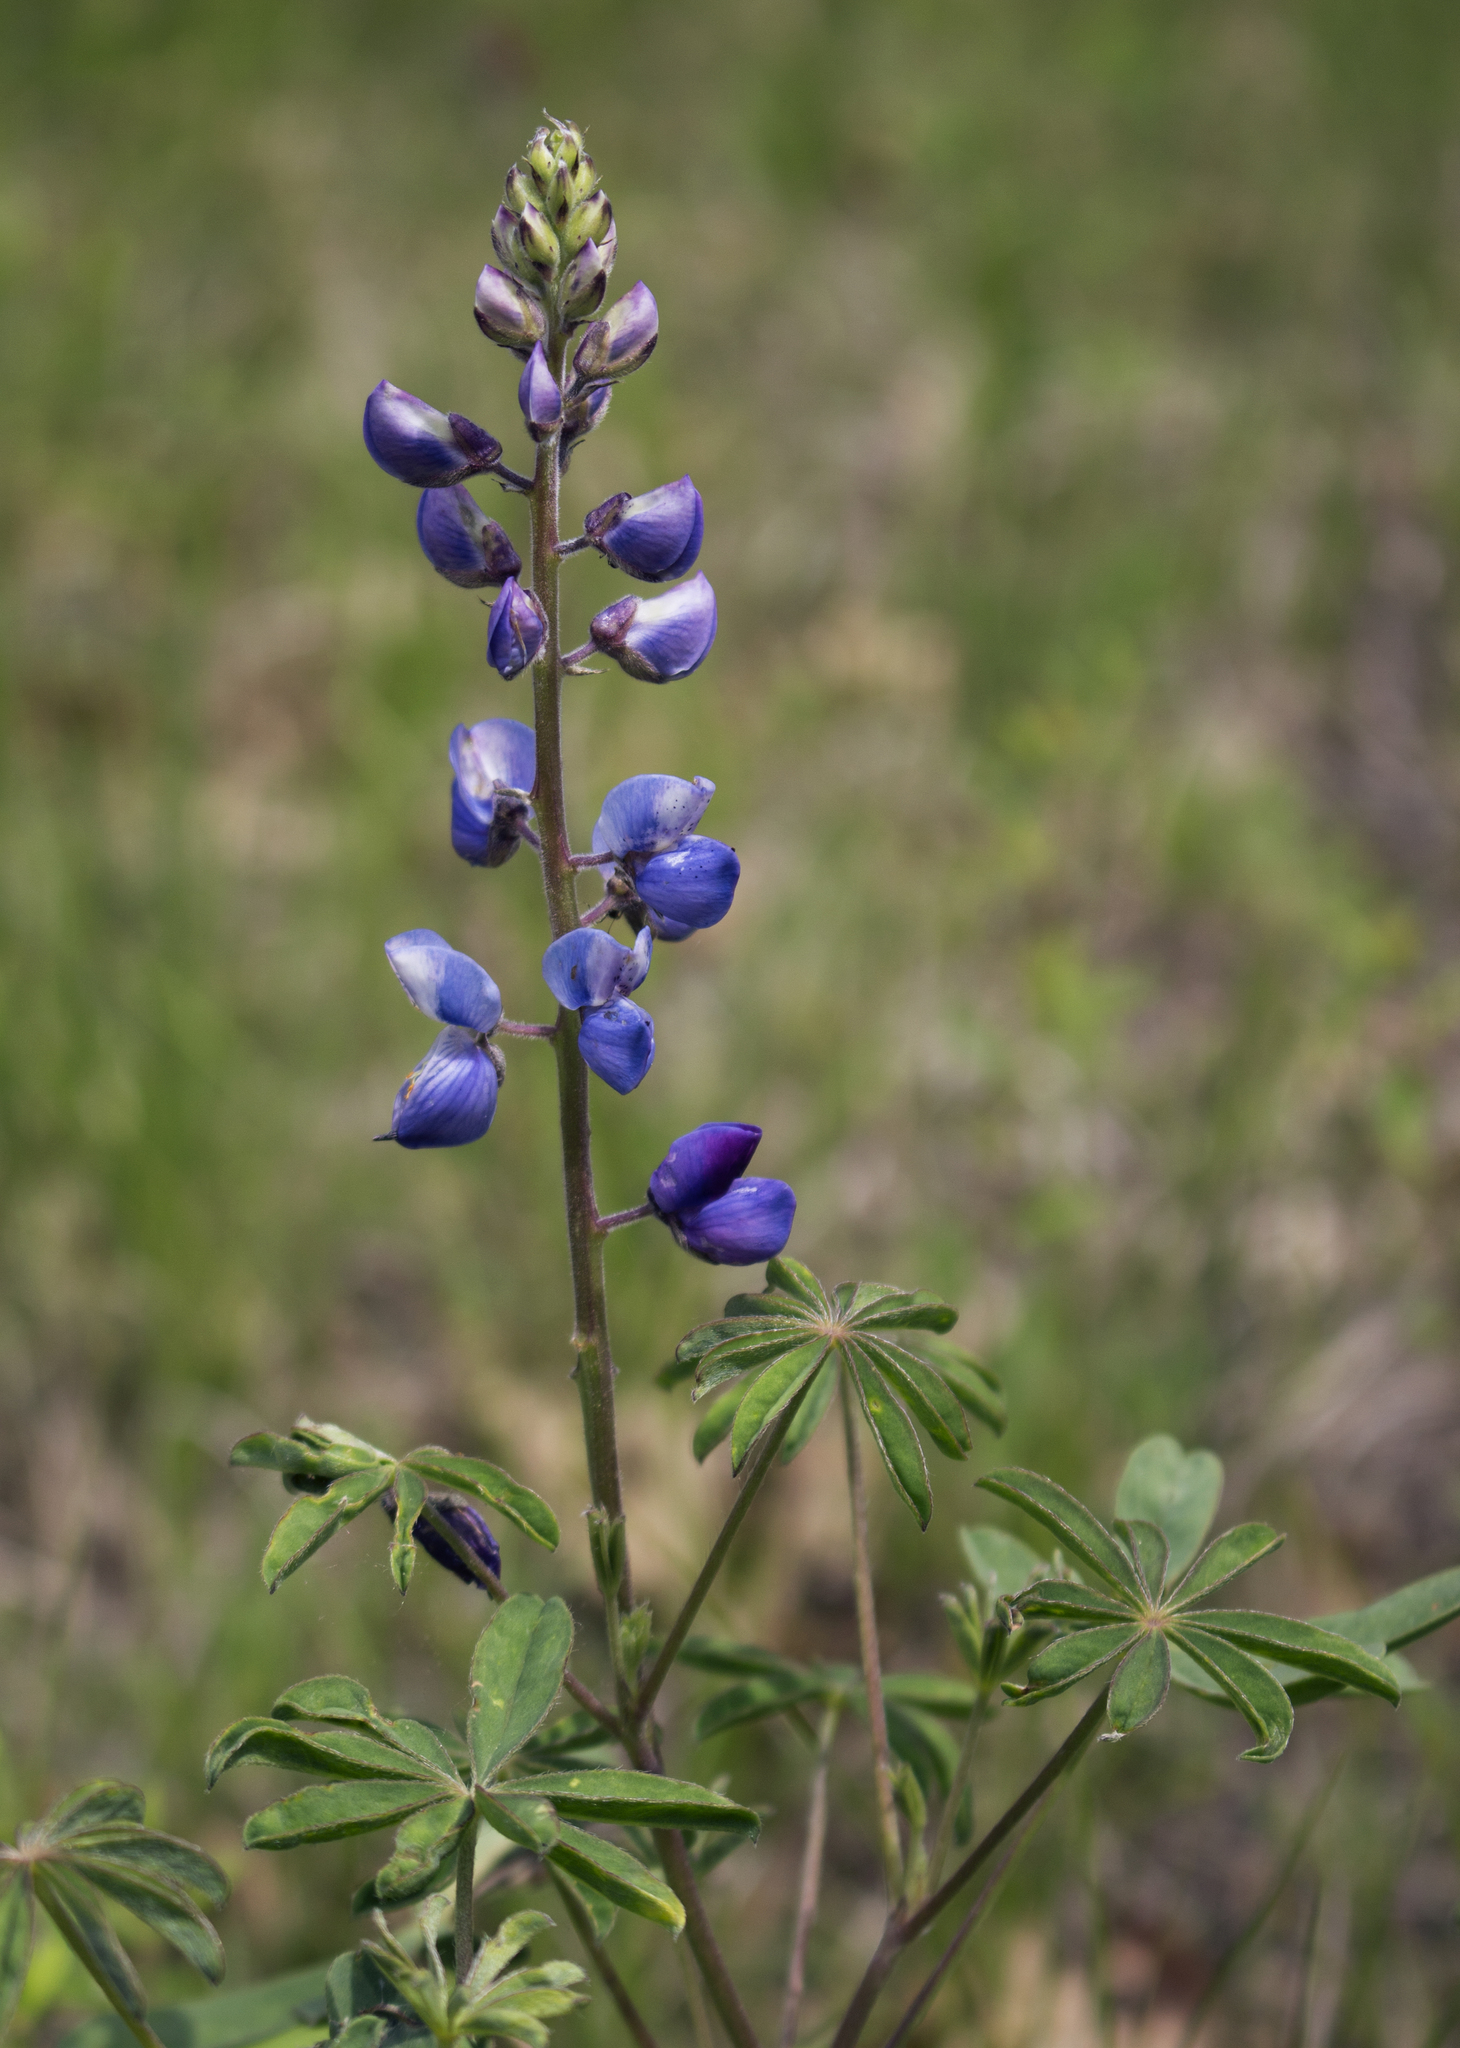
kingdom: Plantae
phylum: Tracheophyta
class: Magnoliopsida
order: Fabales
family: Fabaceae
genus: Lupinus
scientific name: Lupinus perennis
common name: Sundial lupine
